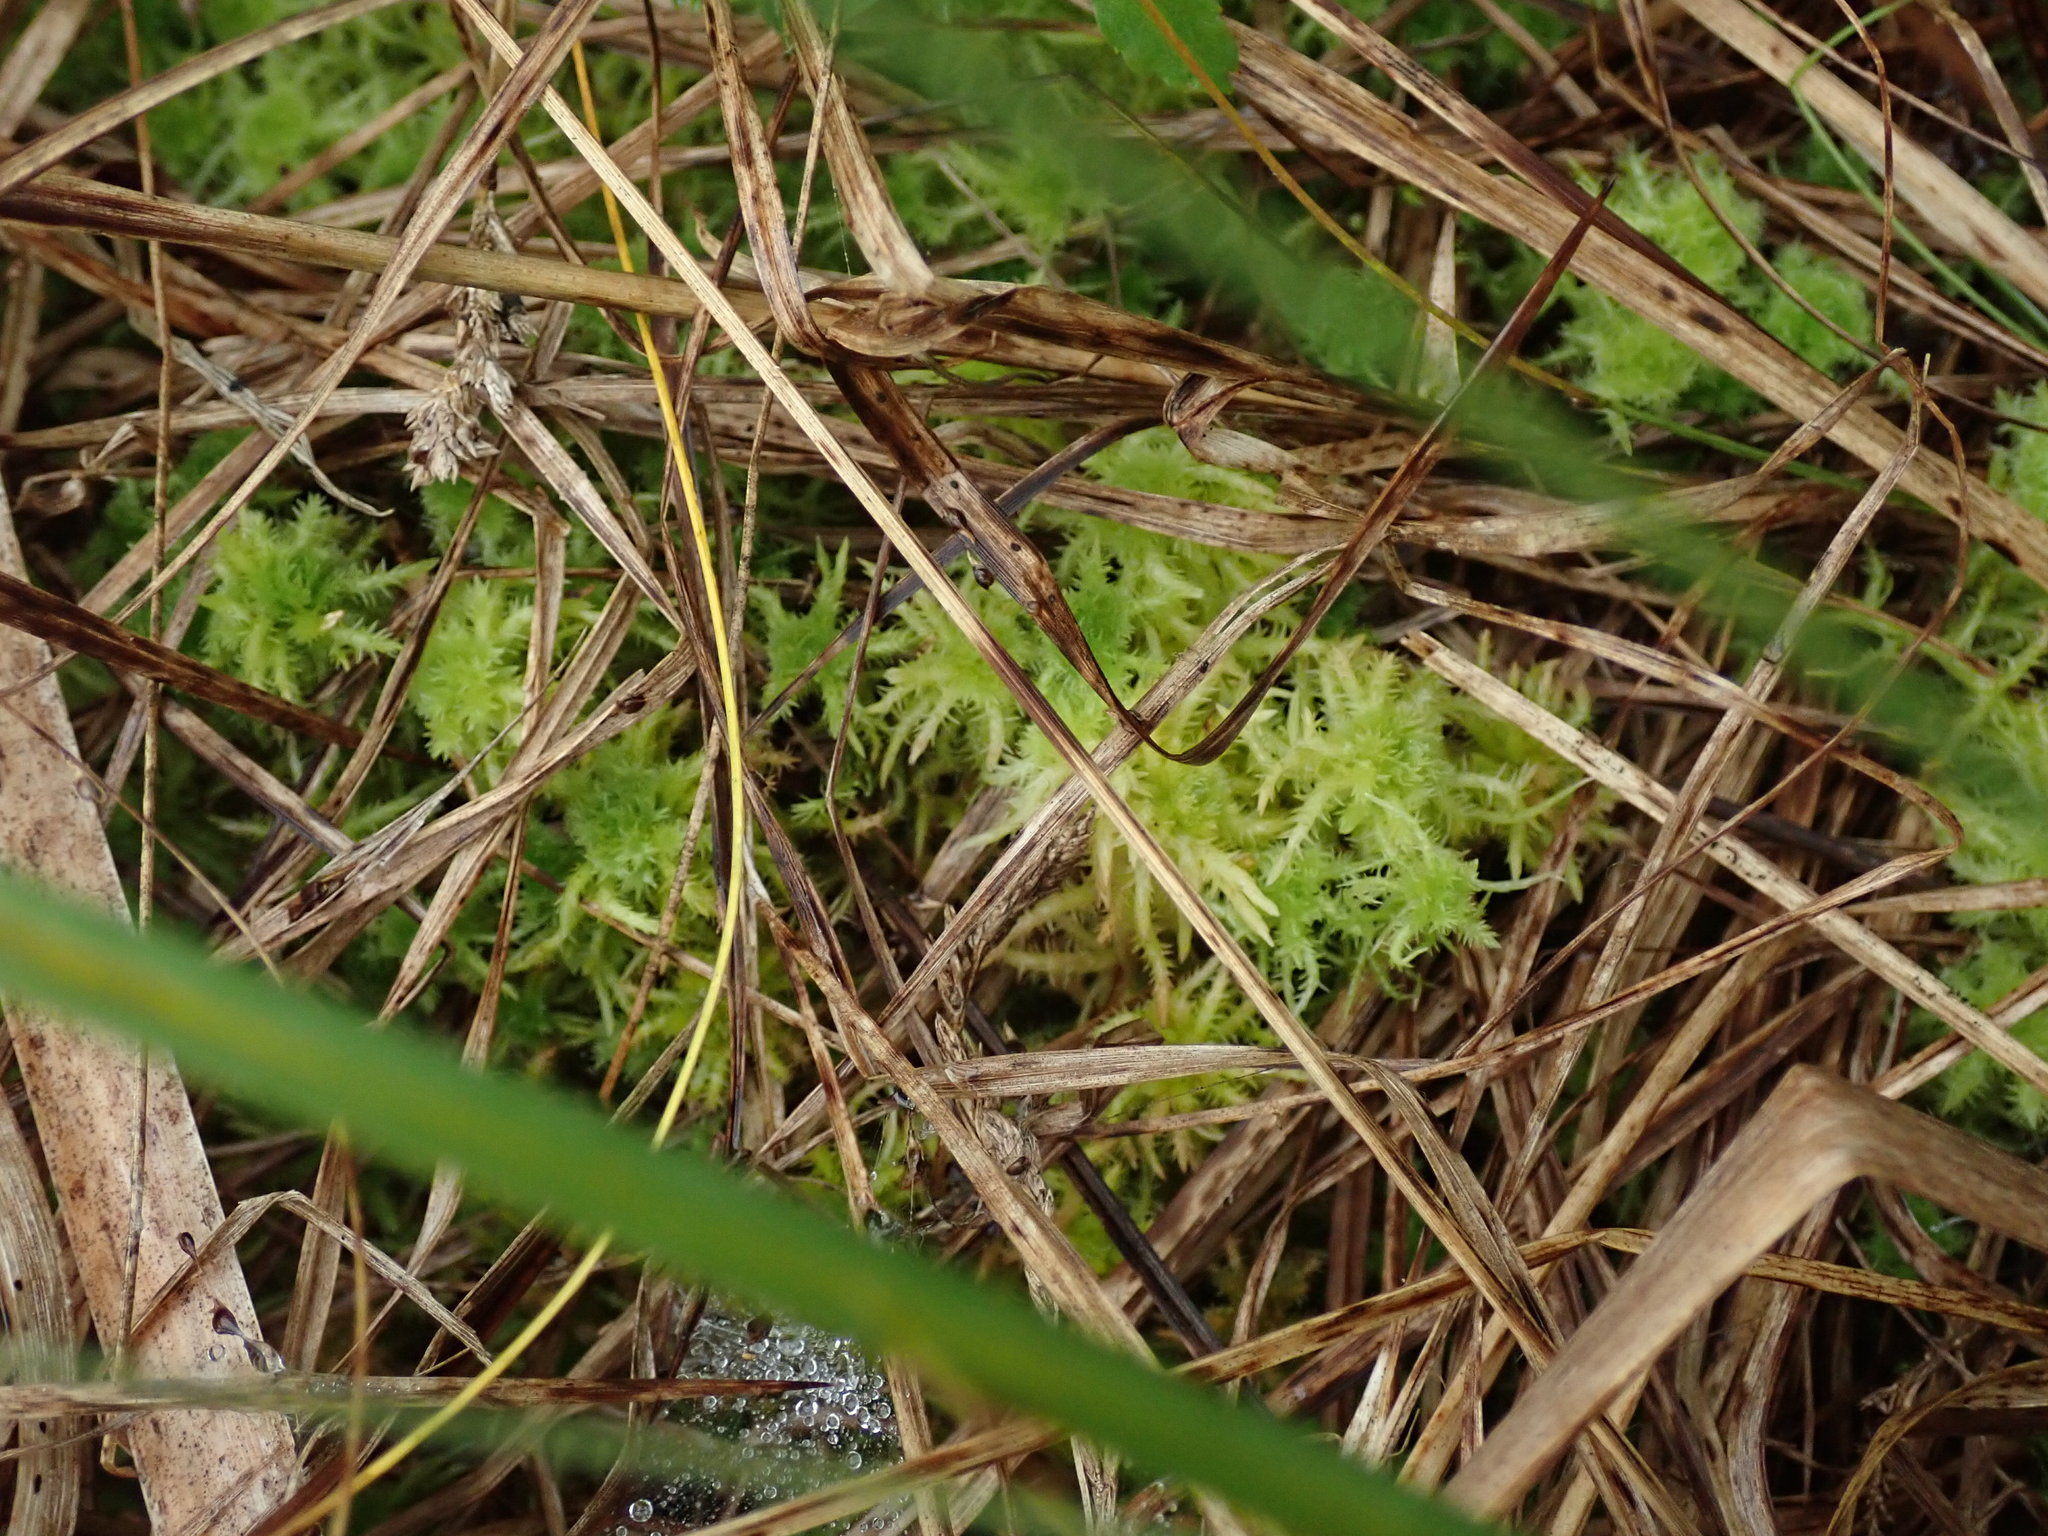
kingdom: Plantae
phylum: Bryophyta
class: Sphagnopsida
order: Sphagnales
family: Sphagnaceae
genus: Sphagnum
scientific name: Sphagnum squarrosum
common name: Shaggy peat moss
